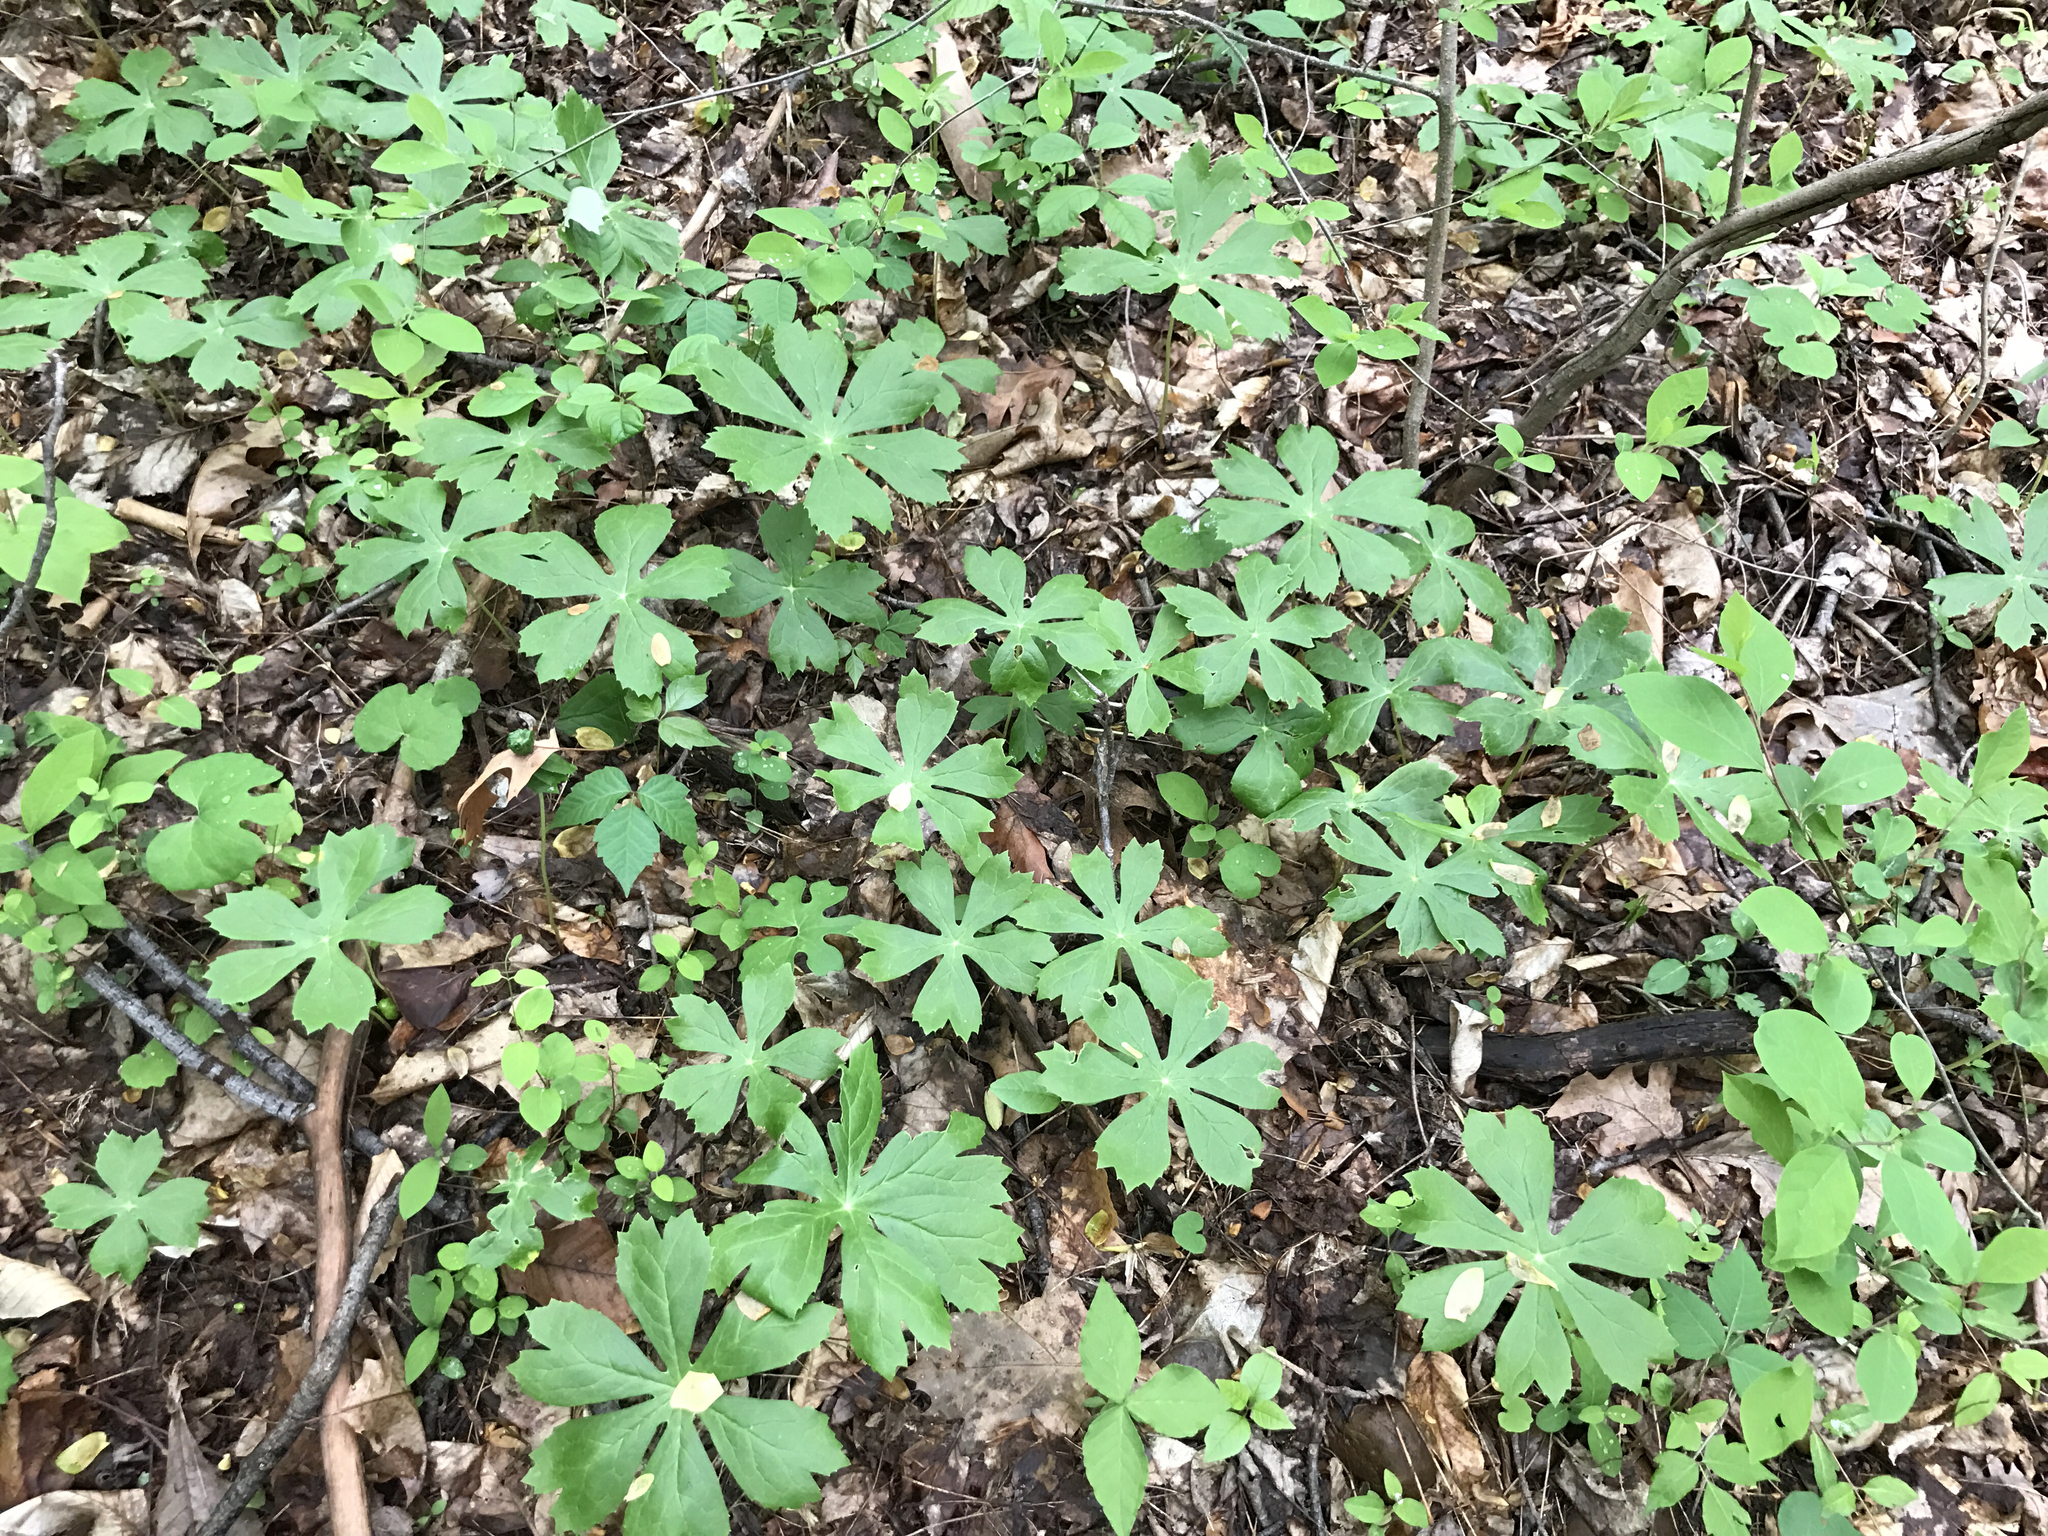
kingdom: Plantae
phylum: Tracheophyta
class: Magnoliopsida
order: Ranunculales
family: Berberidaceae
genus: Podophyllum
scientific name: Podophyllum peltatum
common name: Wild mandrake
